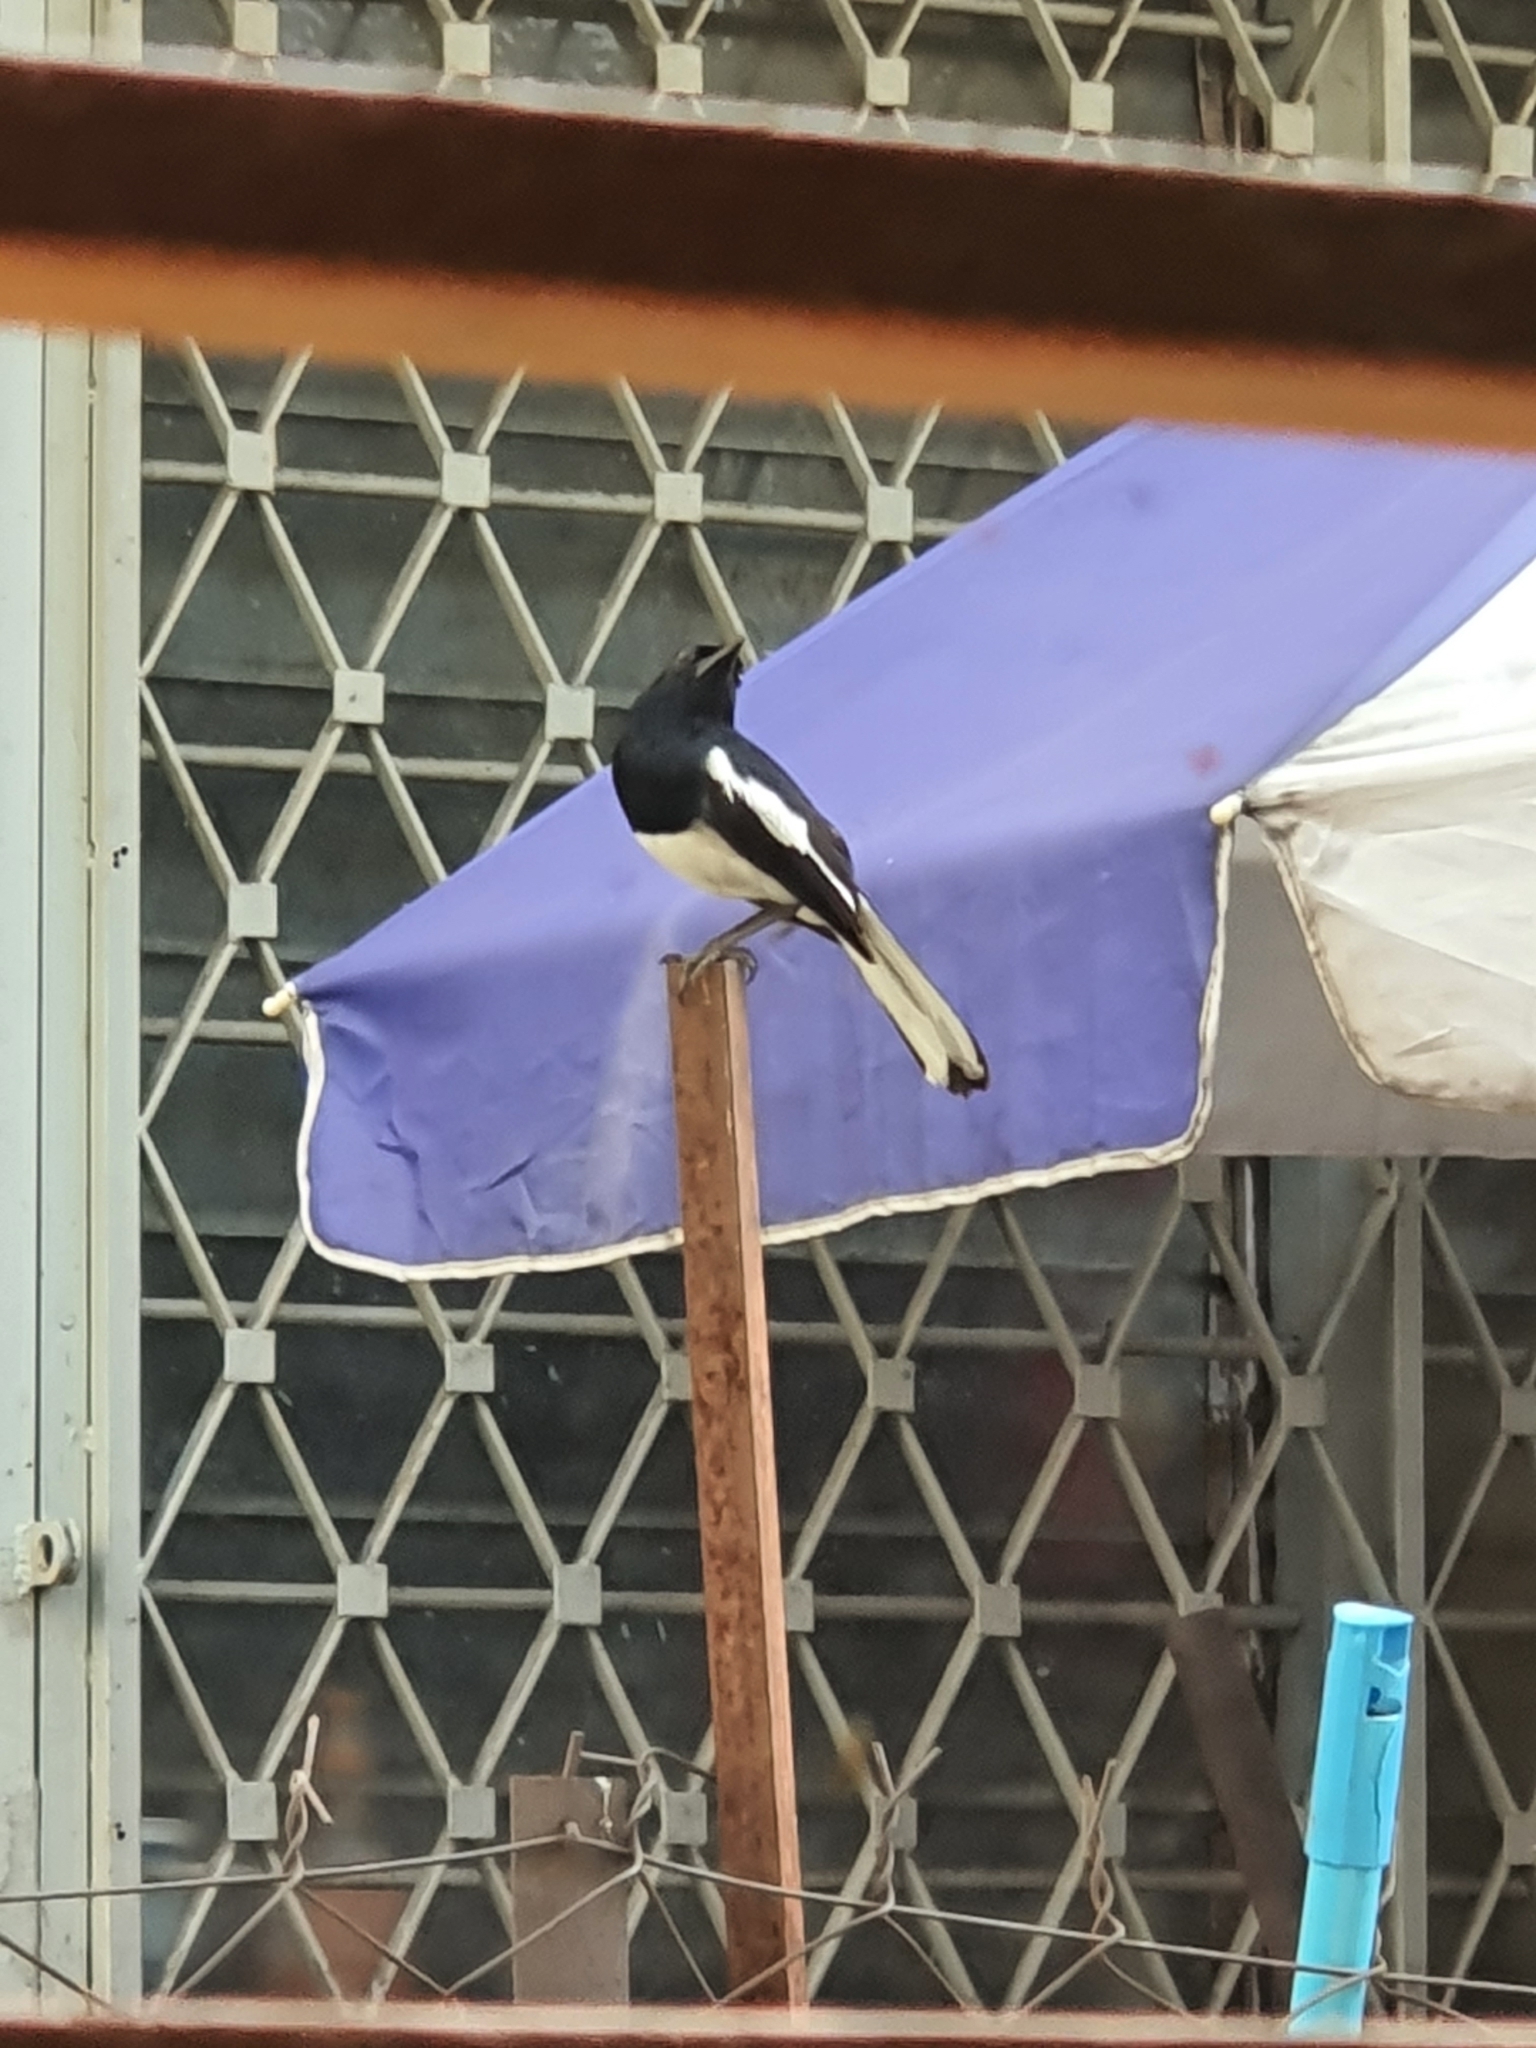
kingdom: Animalia
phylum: Chordata
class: Aves
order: Passeriformes
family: Muscicapidae
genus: Copsychus
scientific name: Copsychus saularis
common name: Oriental magpie-robin
